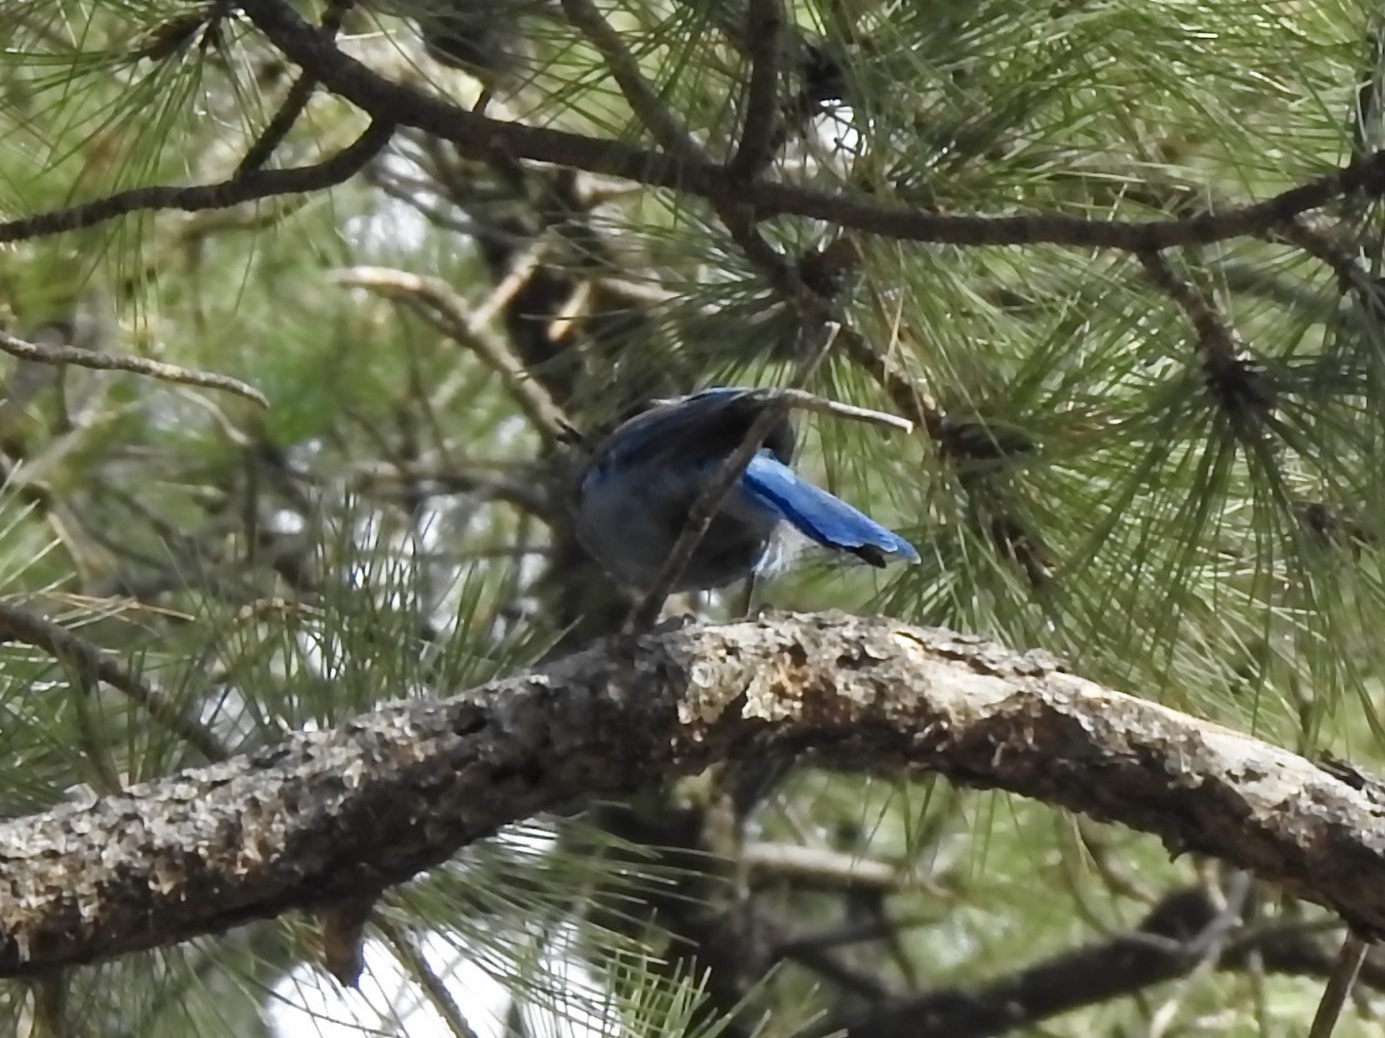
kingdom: Animalia
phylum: Chordata
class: Aves
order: Passeriformes
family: Corvidae
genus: Cyanocitta
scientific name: Cyanocitta stelleri
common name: Steller's jay
